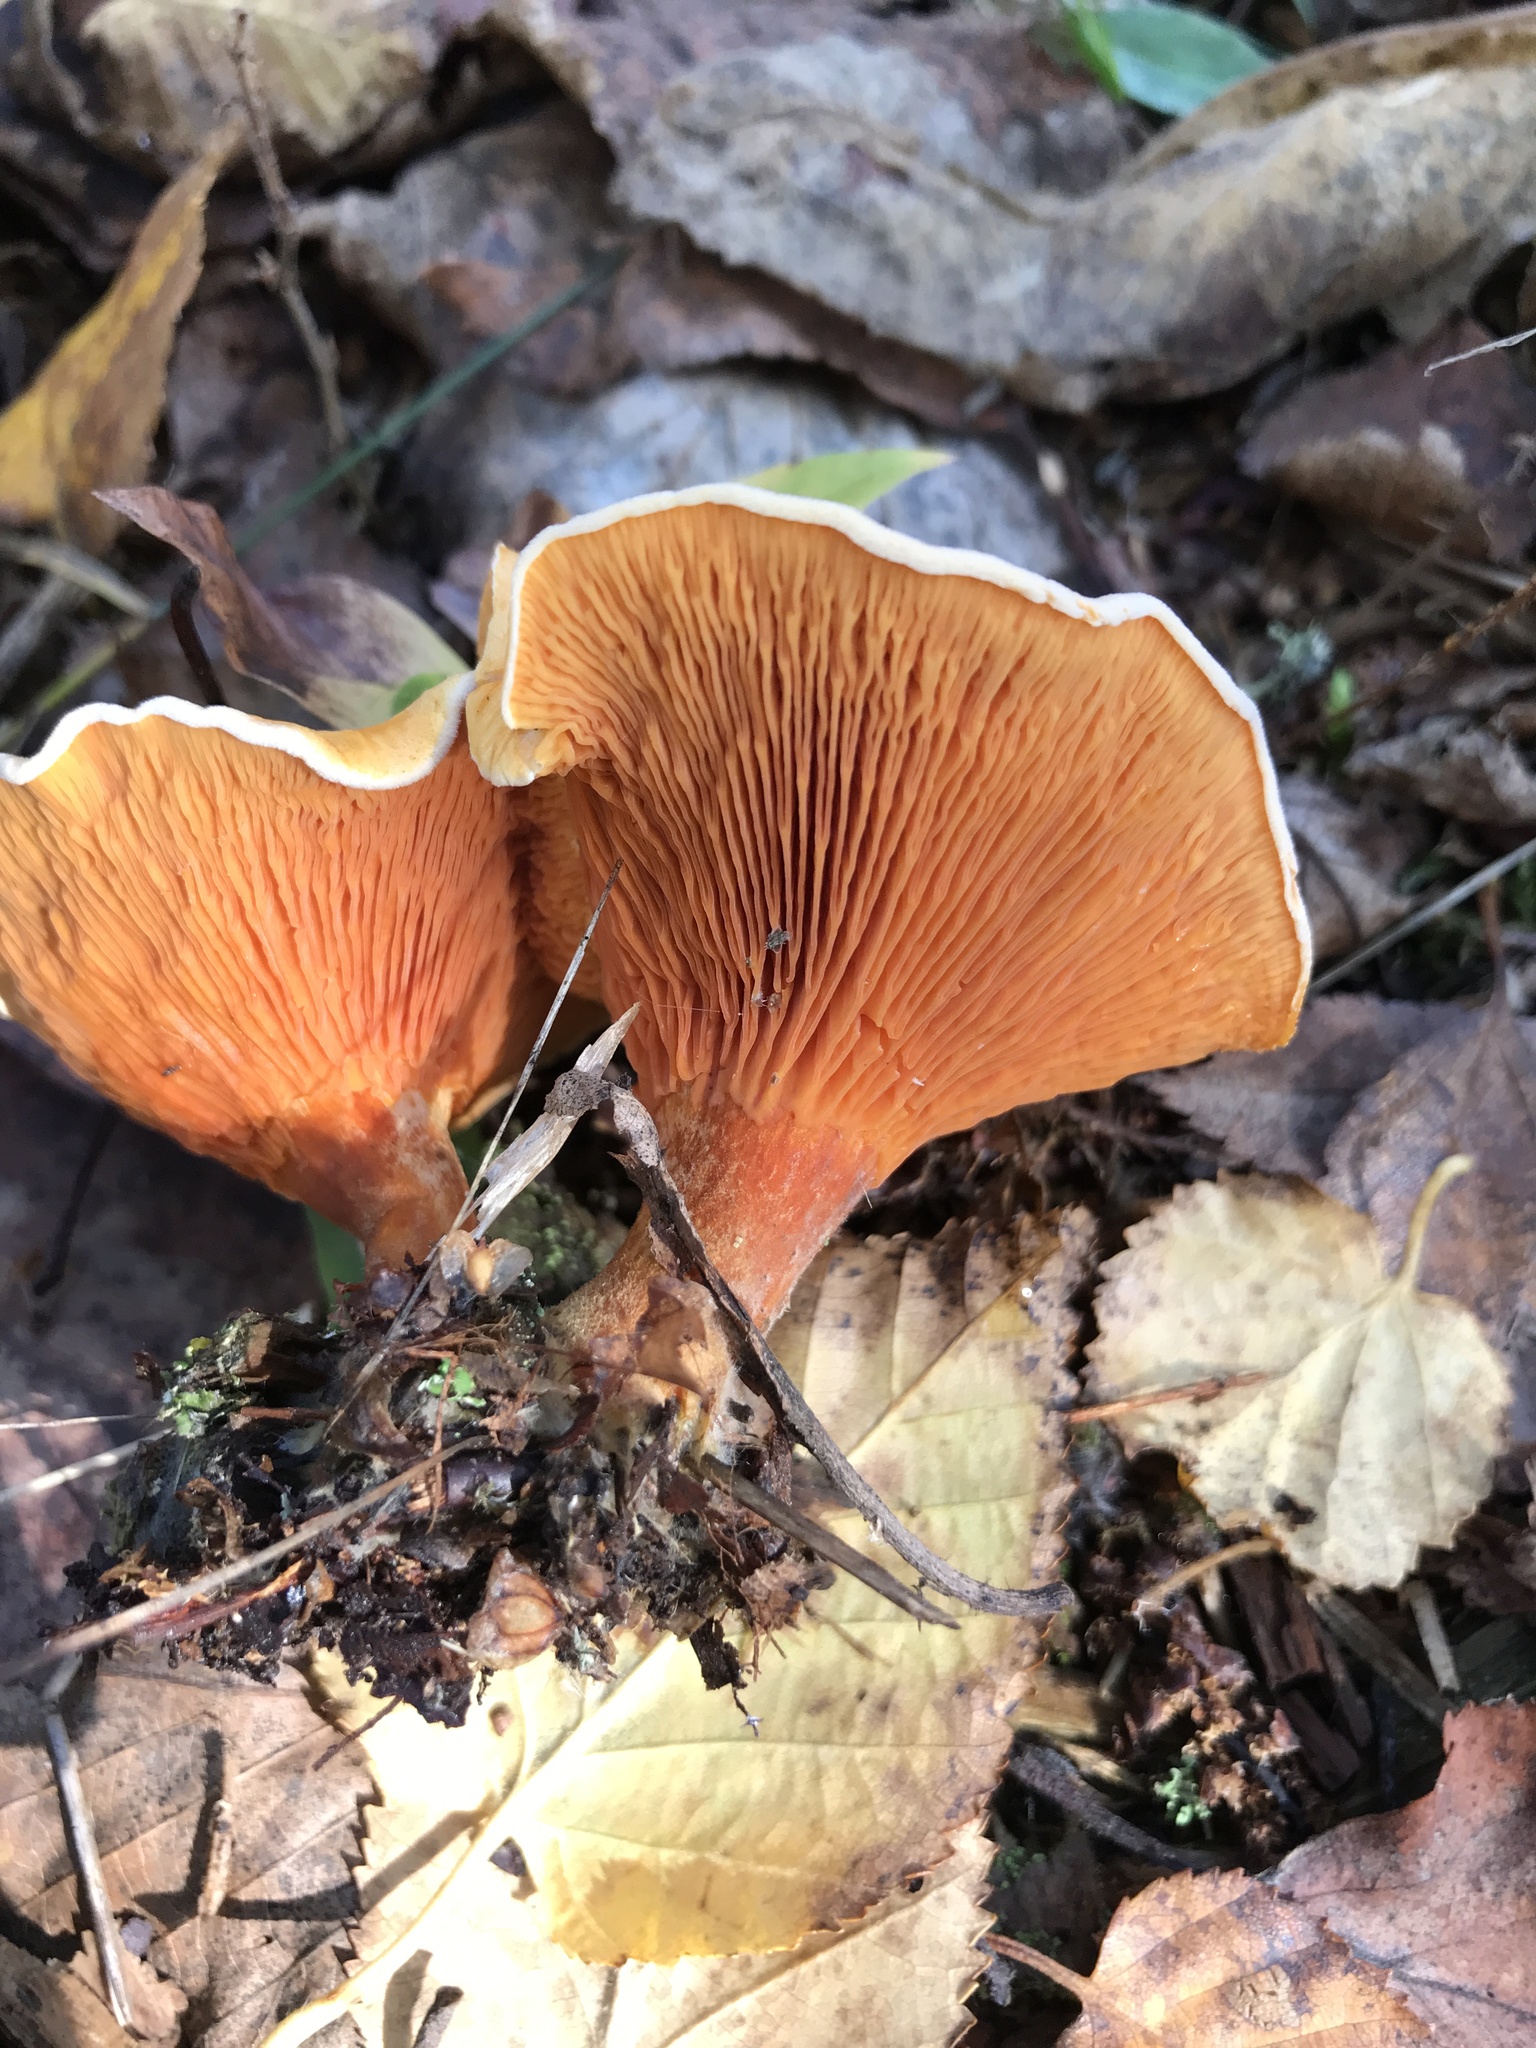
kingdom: Fungi
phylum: Basidiomycota
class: Agaricomycetes
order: Boletales
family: Hygrophoropsidaceae
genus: Hygrophoropsis
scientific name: Hygrophoropsis aurantiaca
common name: False chanterelle
